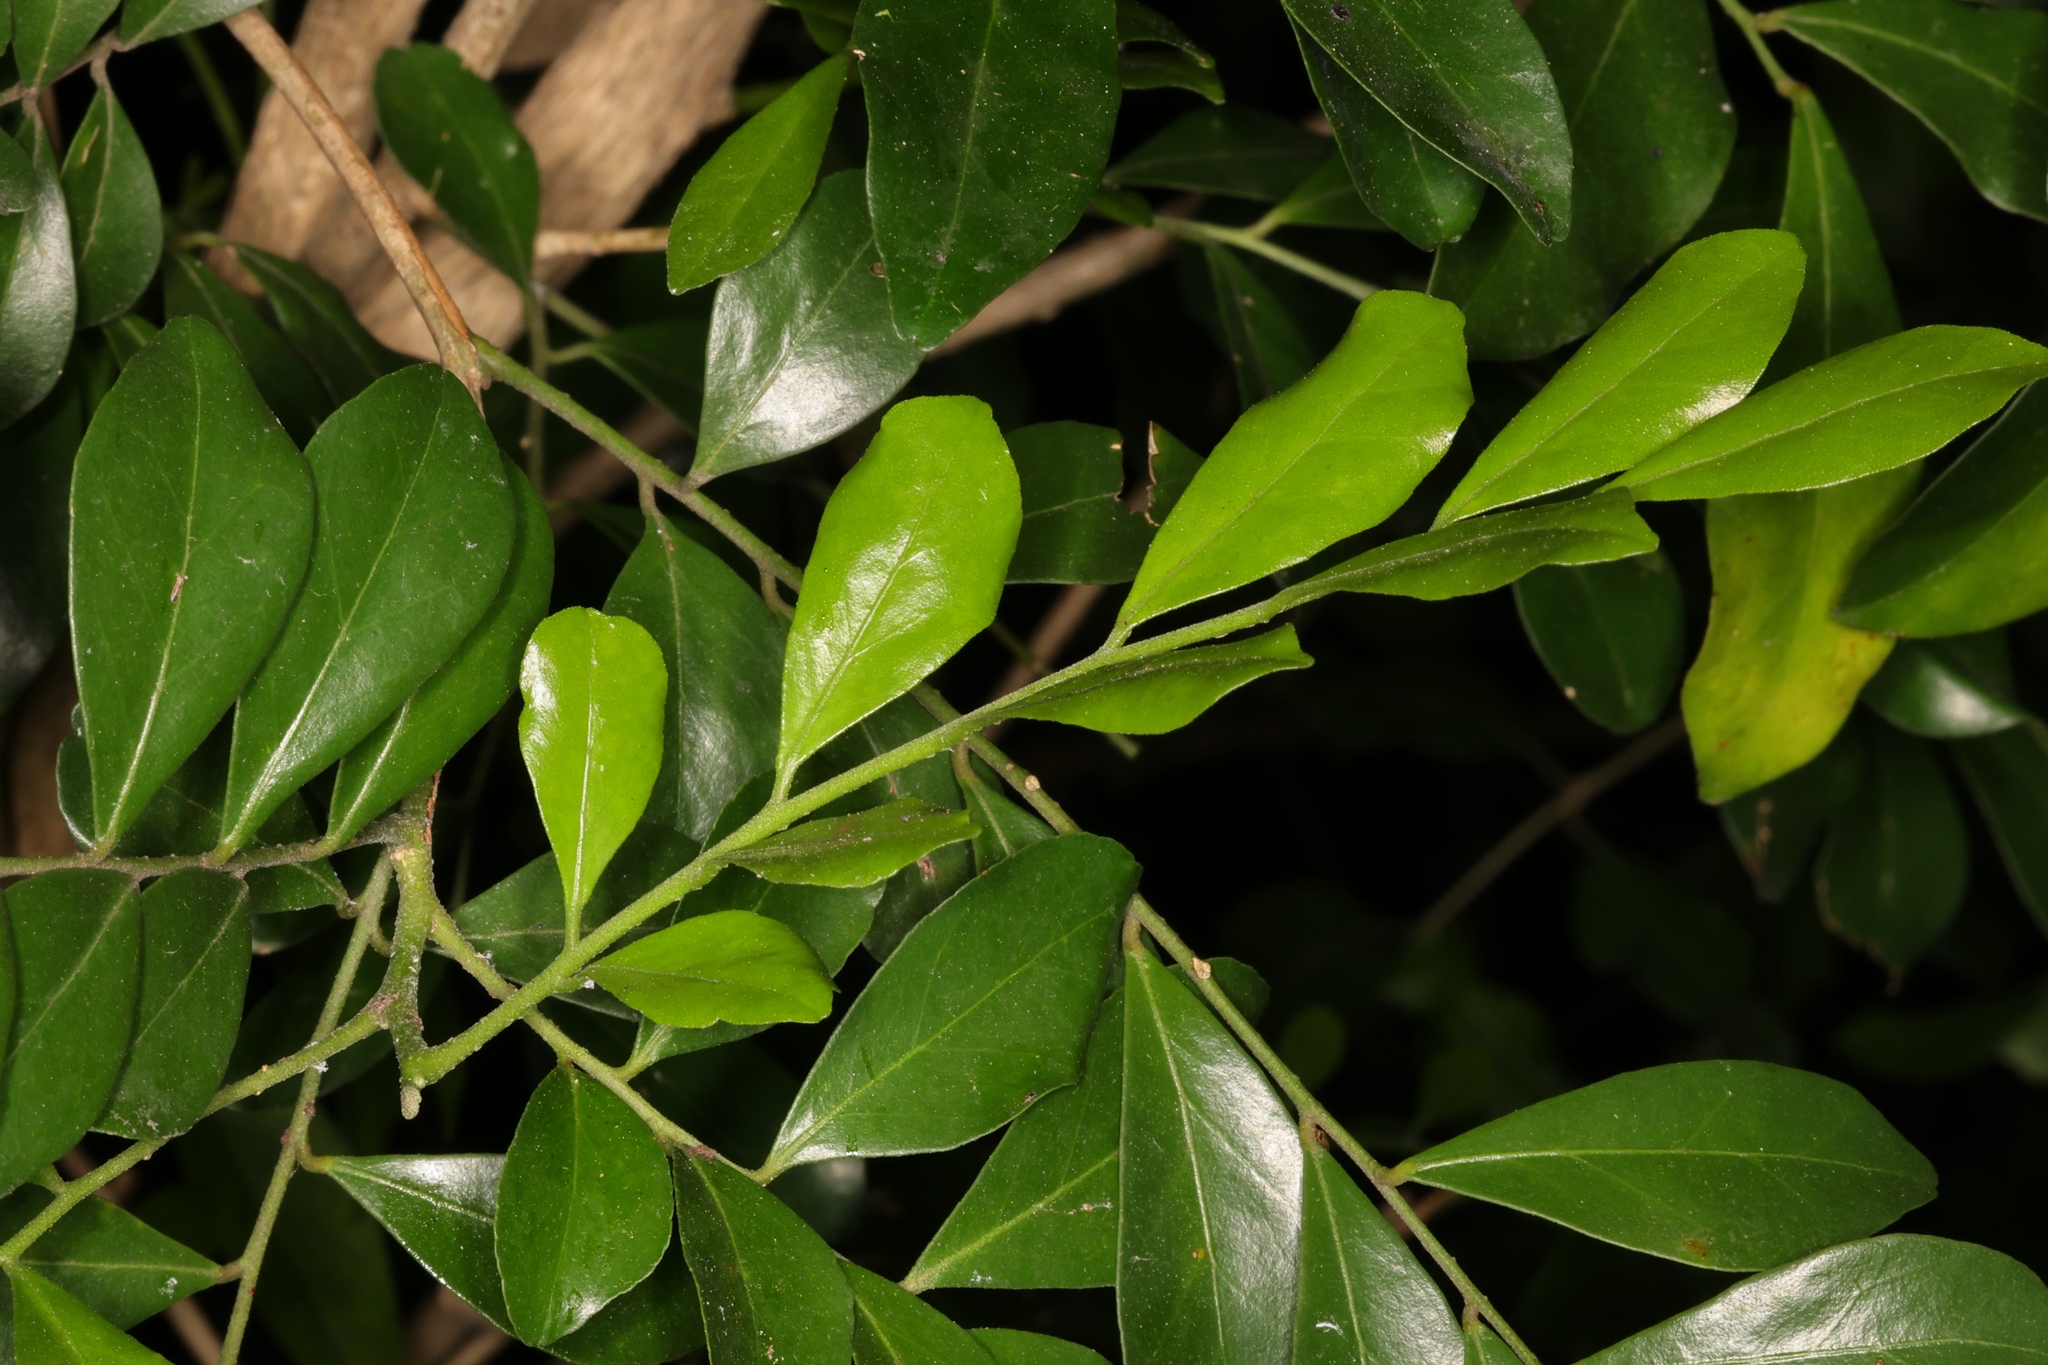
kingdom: Plantae
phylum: Tracheophyta
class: Magnoliopsida
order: Sapindales
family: Rutaceae
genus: Murraya
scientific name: Murraya paniculata
